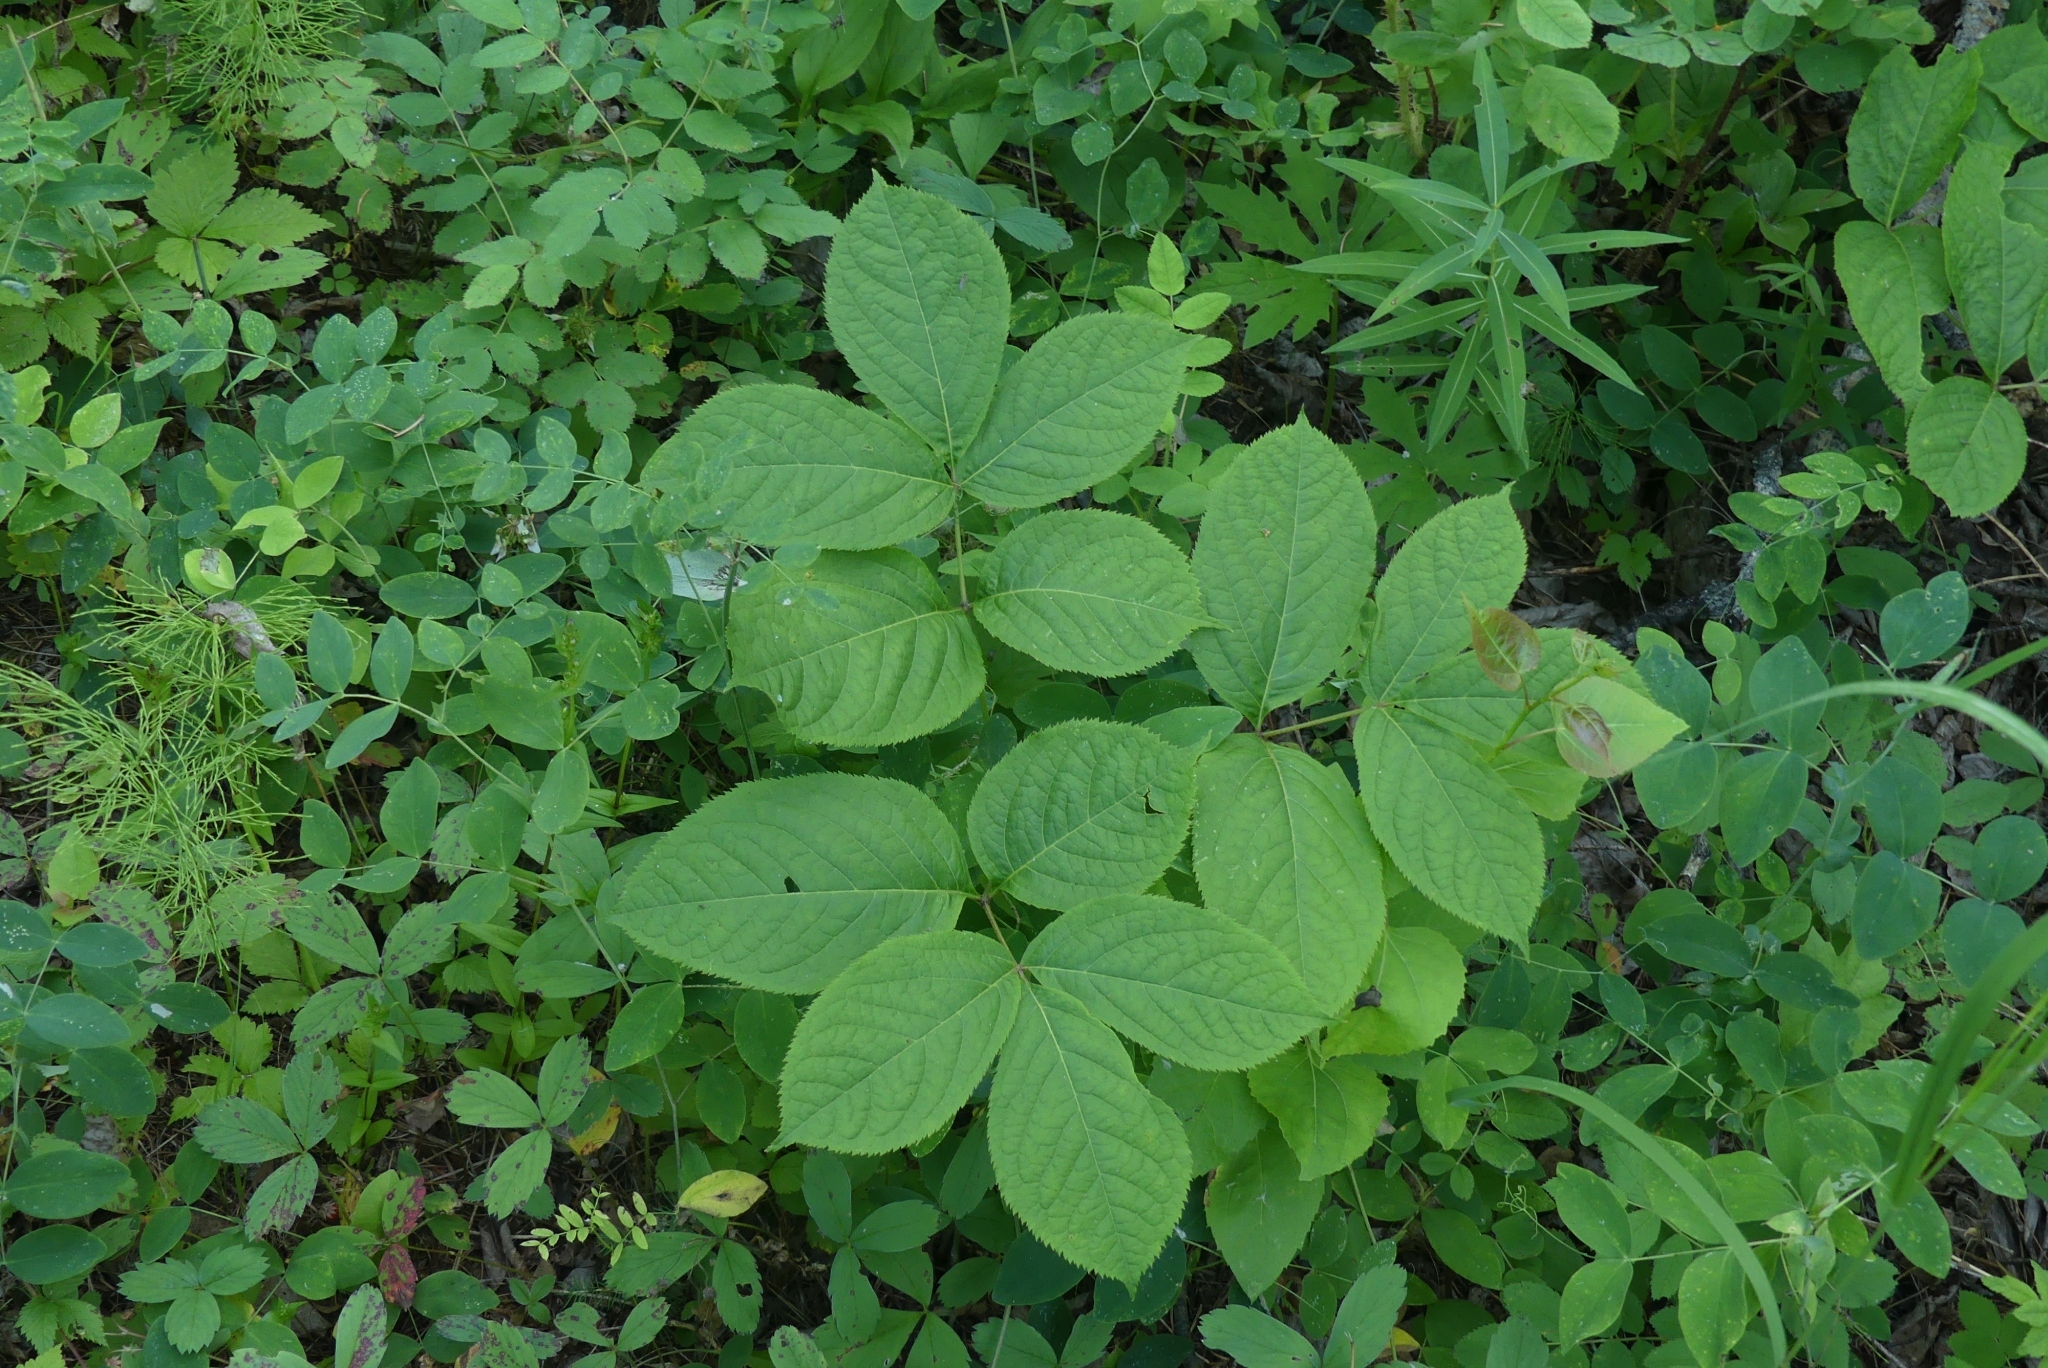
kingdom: Plantae
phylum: Tracheophyta
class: Magnoliopsida
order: Apiales
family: Araliaceae
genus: Aralia
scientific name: Aralia nudicaulis
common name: Wild sarsaparilla
